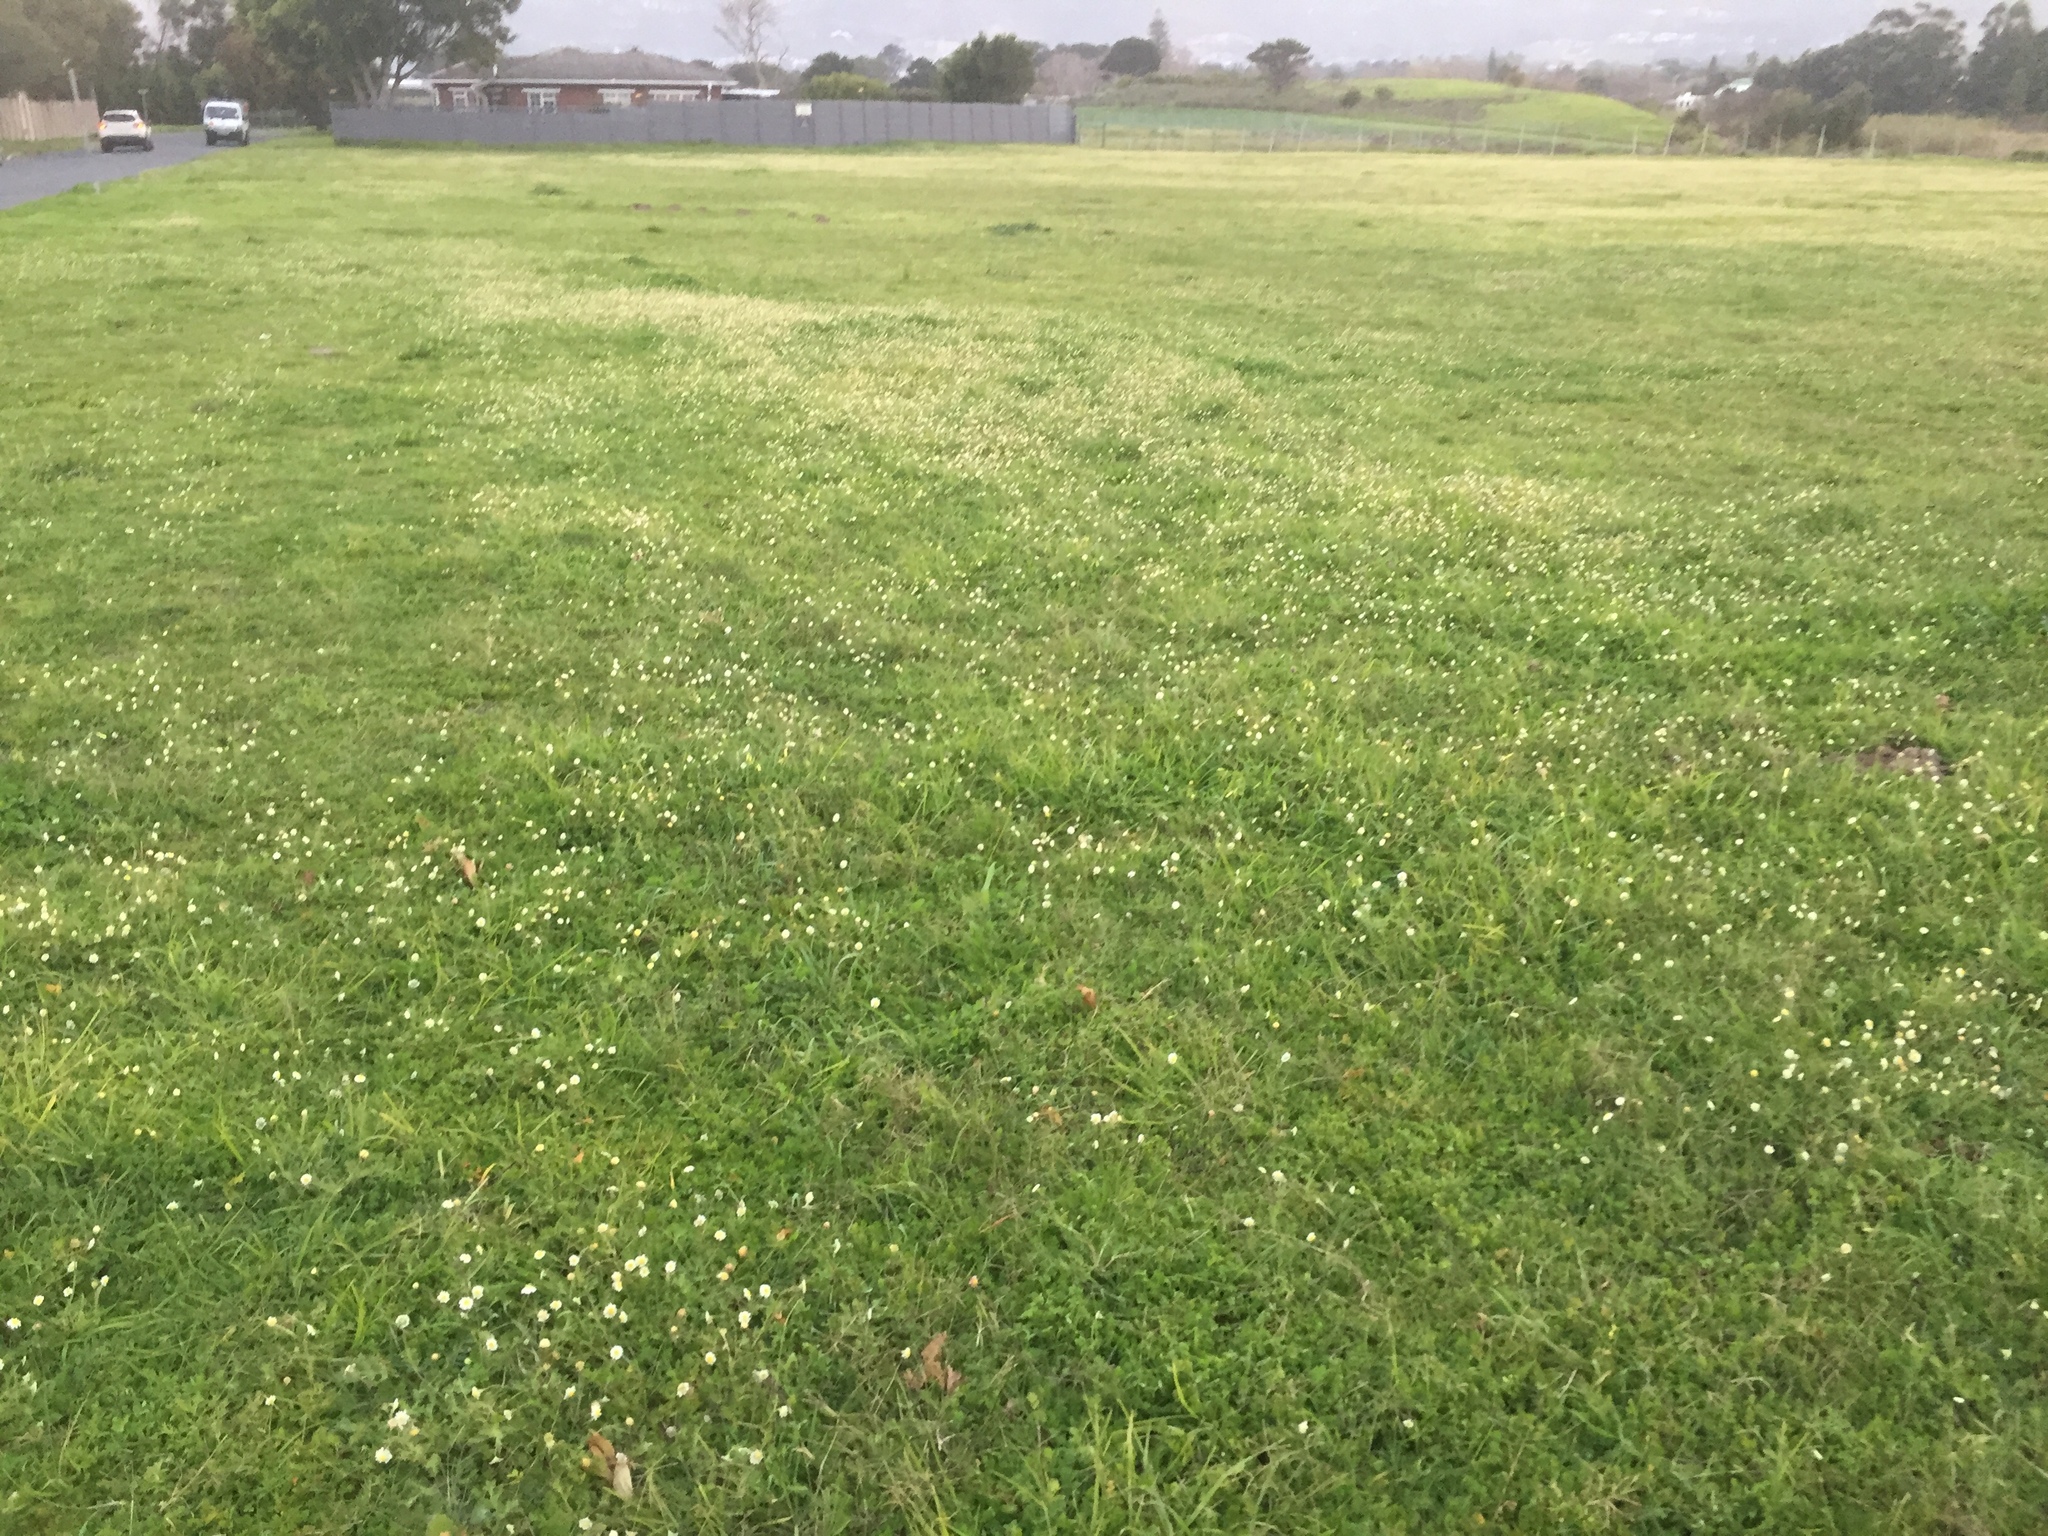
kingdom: Plantae
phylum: Tracheophyta
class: Magnoliopsida
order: Asterales
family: Asteraceae
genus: Cotula
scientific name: Cotula turbinata
